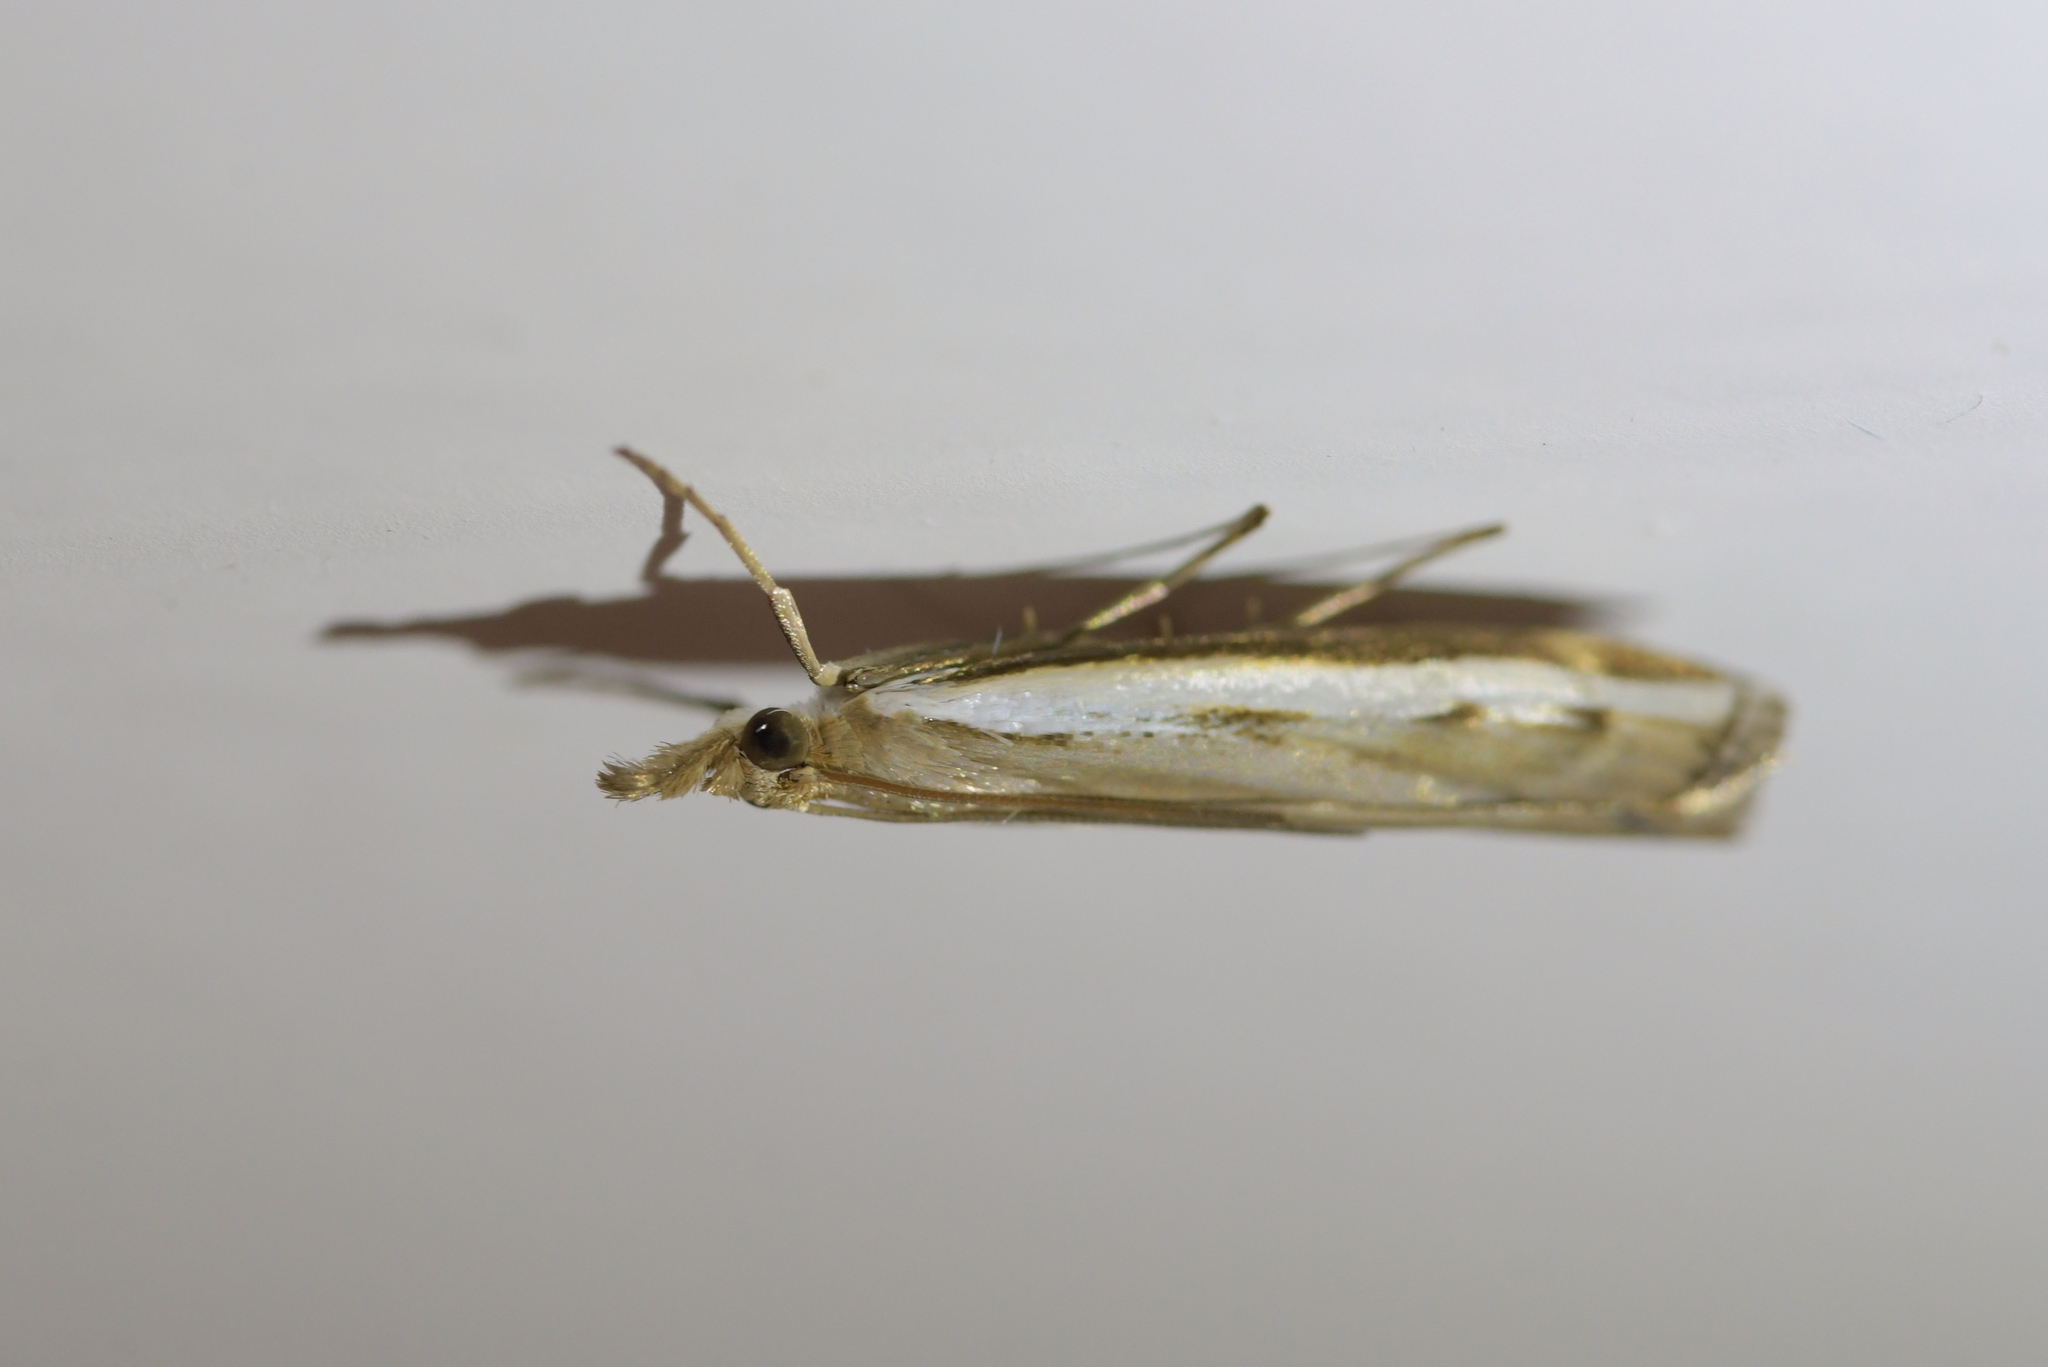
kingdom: Animalia
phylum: Arthropoda
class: Insecta
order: Lepidoptera
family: Crambidae
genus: Orocrambus
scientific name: Orocrambus flexuosellus
